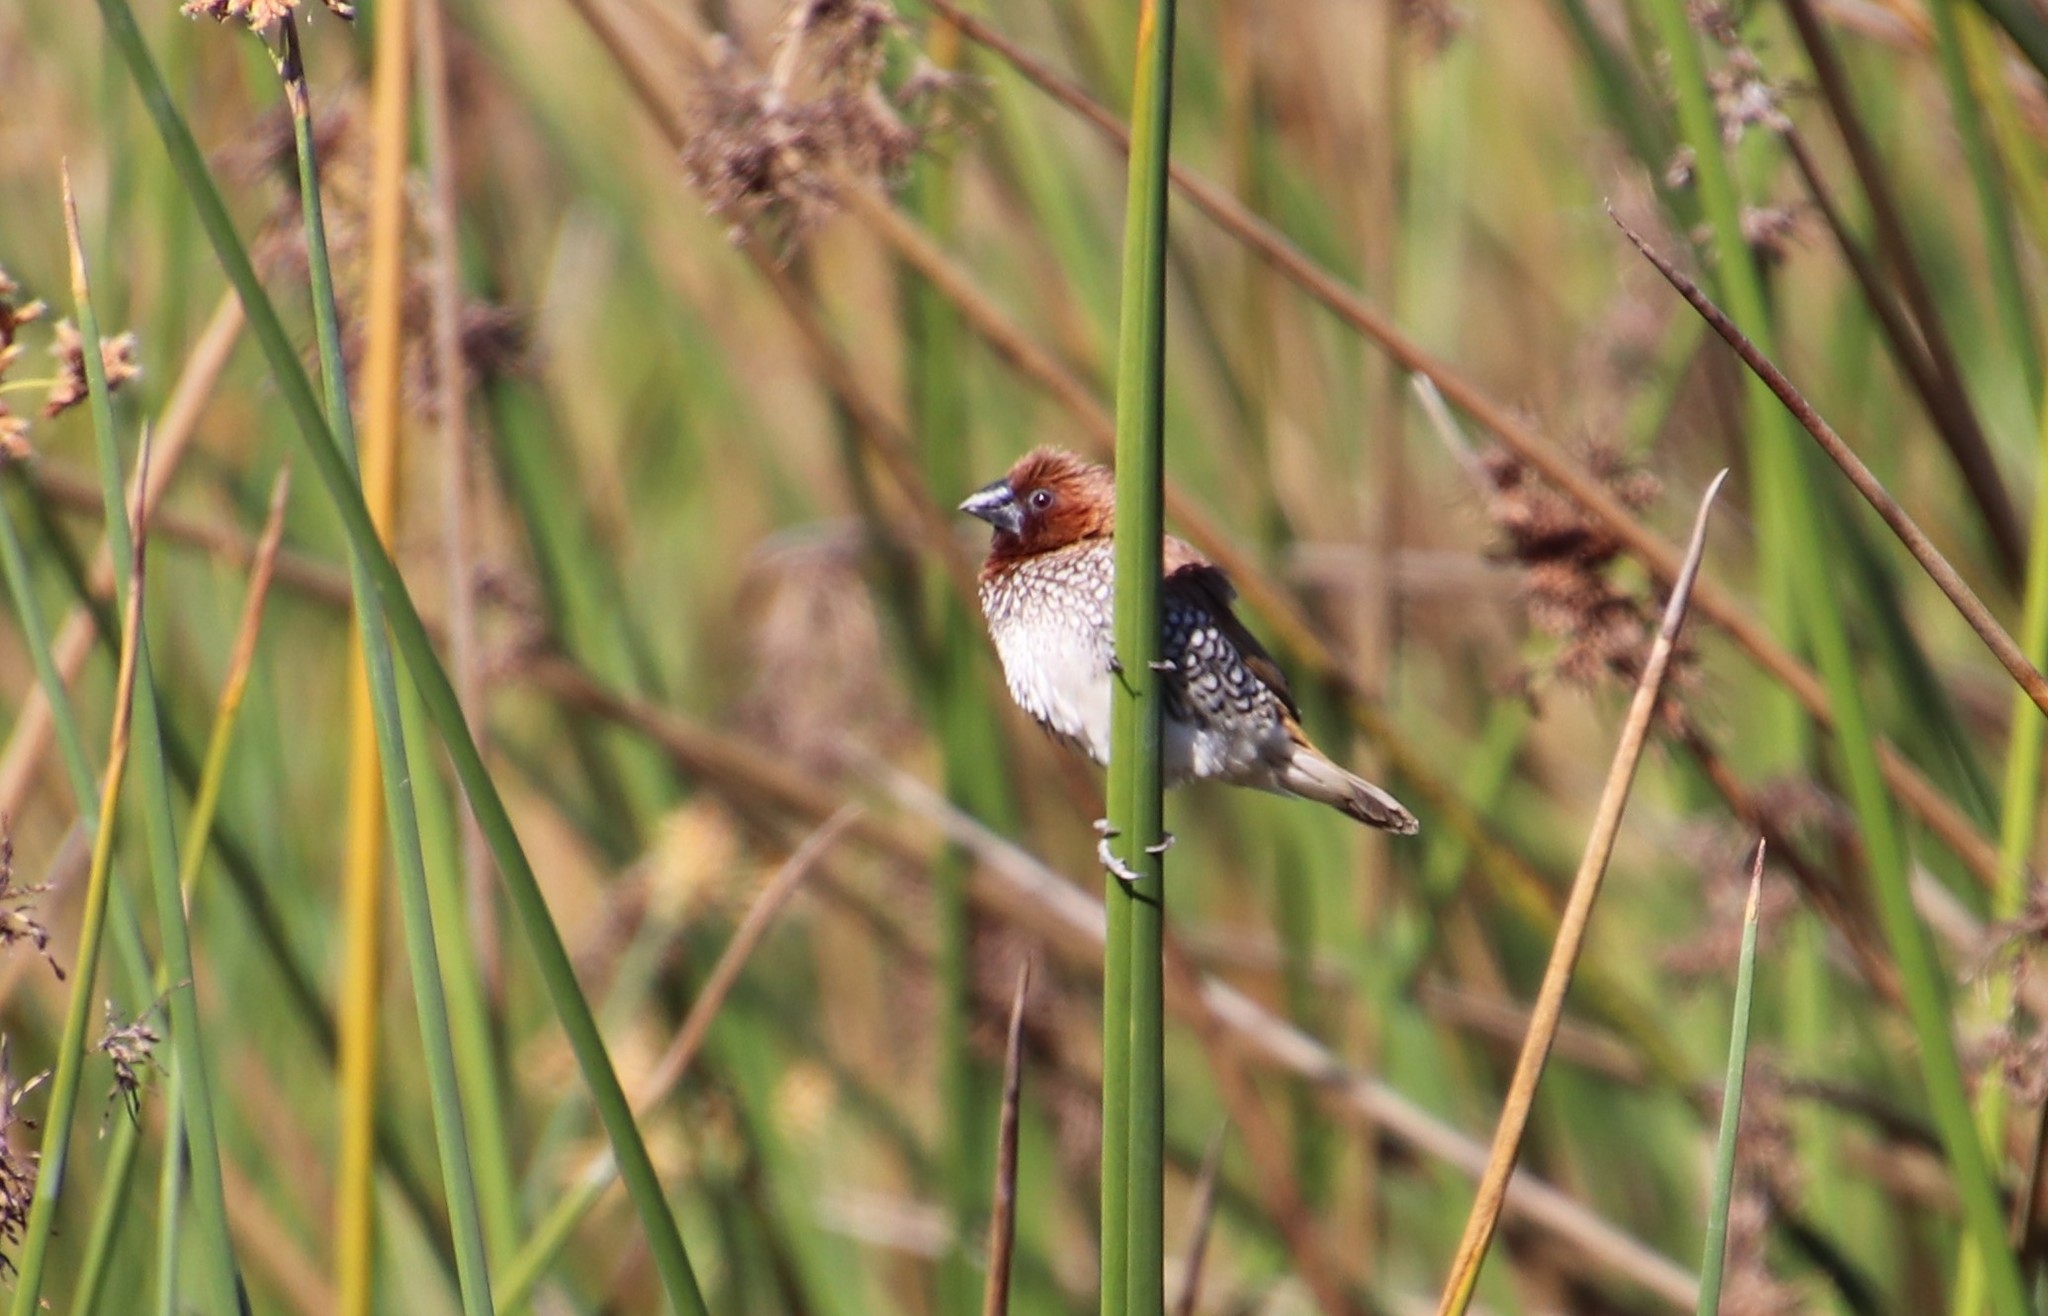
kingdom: Animalia
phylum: Chordata
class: Aves
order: Passeriformes
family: Estrildidae
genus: Lonchura
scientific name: Lonchura punctulata
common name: Scaly-breasted munia
